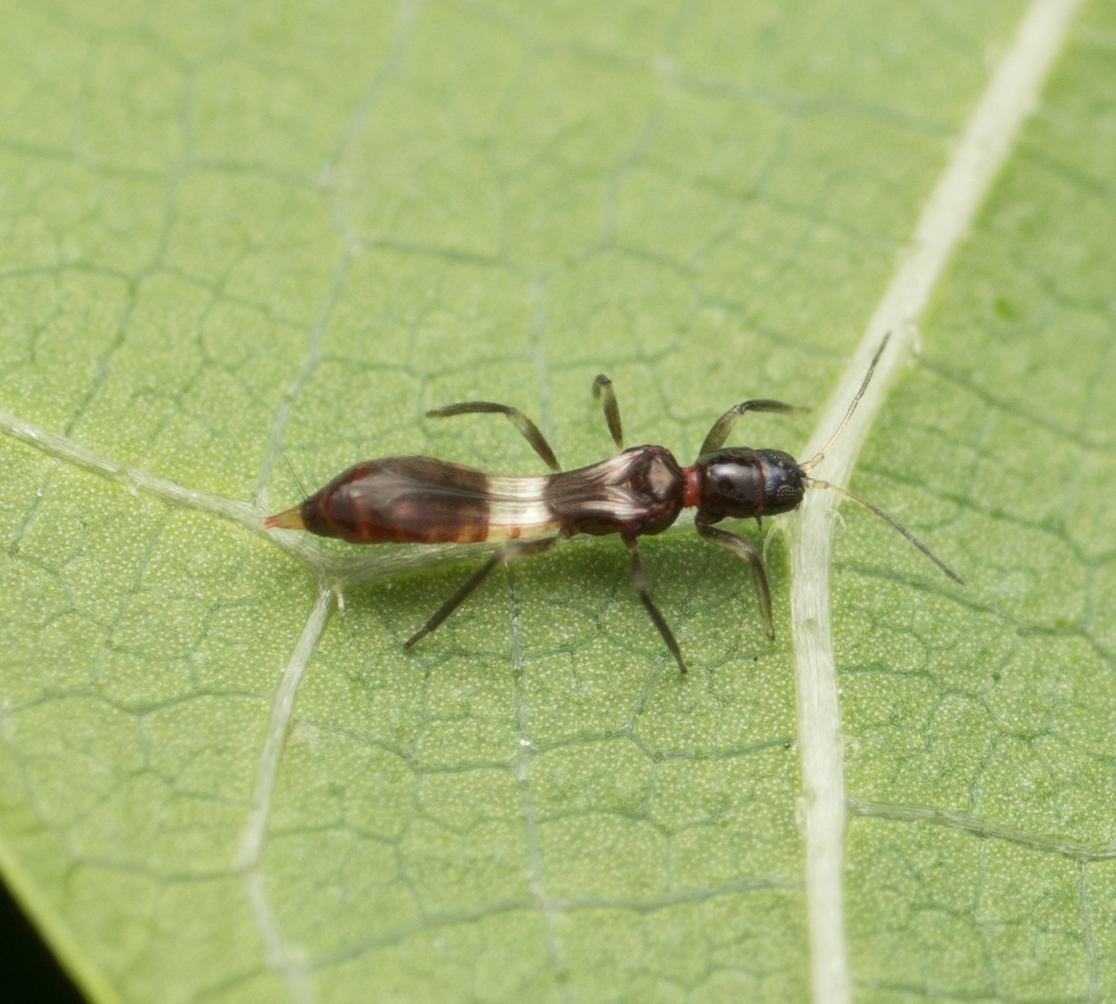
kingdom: Animalia
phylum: Arthropoda
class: Insecta
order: Thysanoptera
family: Aeolothripidae
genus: Franklinothrips
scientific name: Franklinothrips vespiformis
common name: Banded thrip
